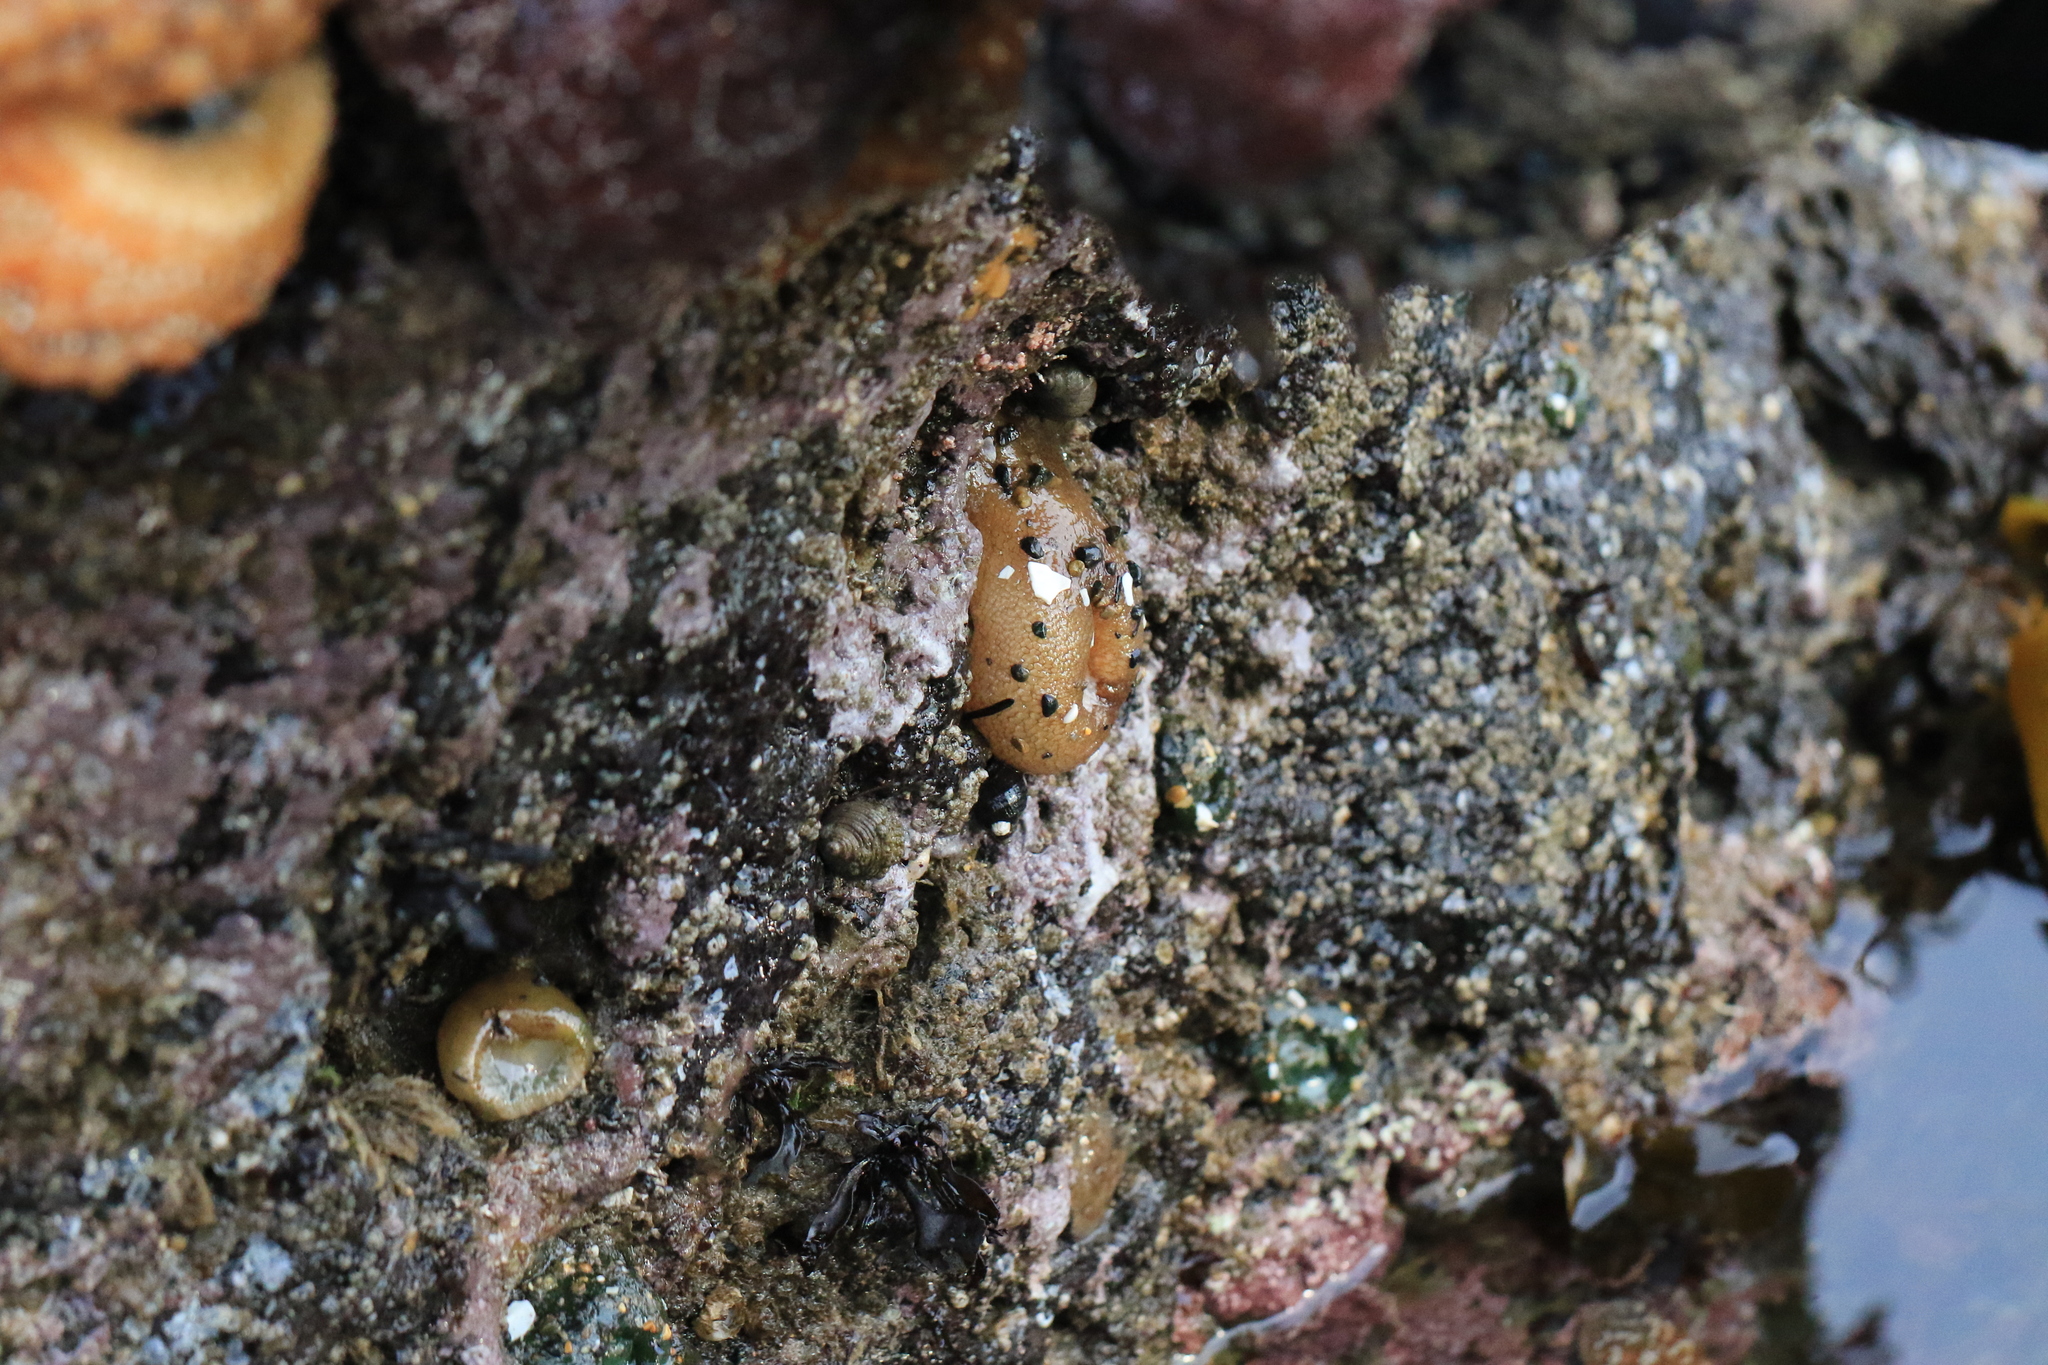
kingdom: Animalia
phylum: Cnidaria
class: Anthozoa
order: Actiniaria
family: Actiniidae
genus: Anthopleura
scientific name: Anthopleura xanthogrammica
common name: Giant green anemone
